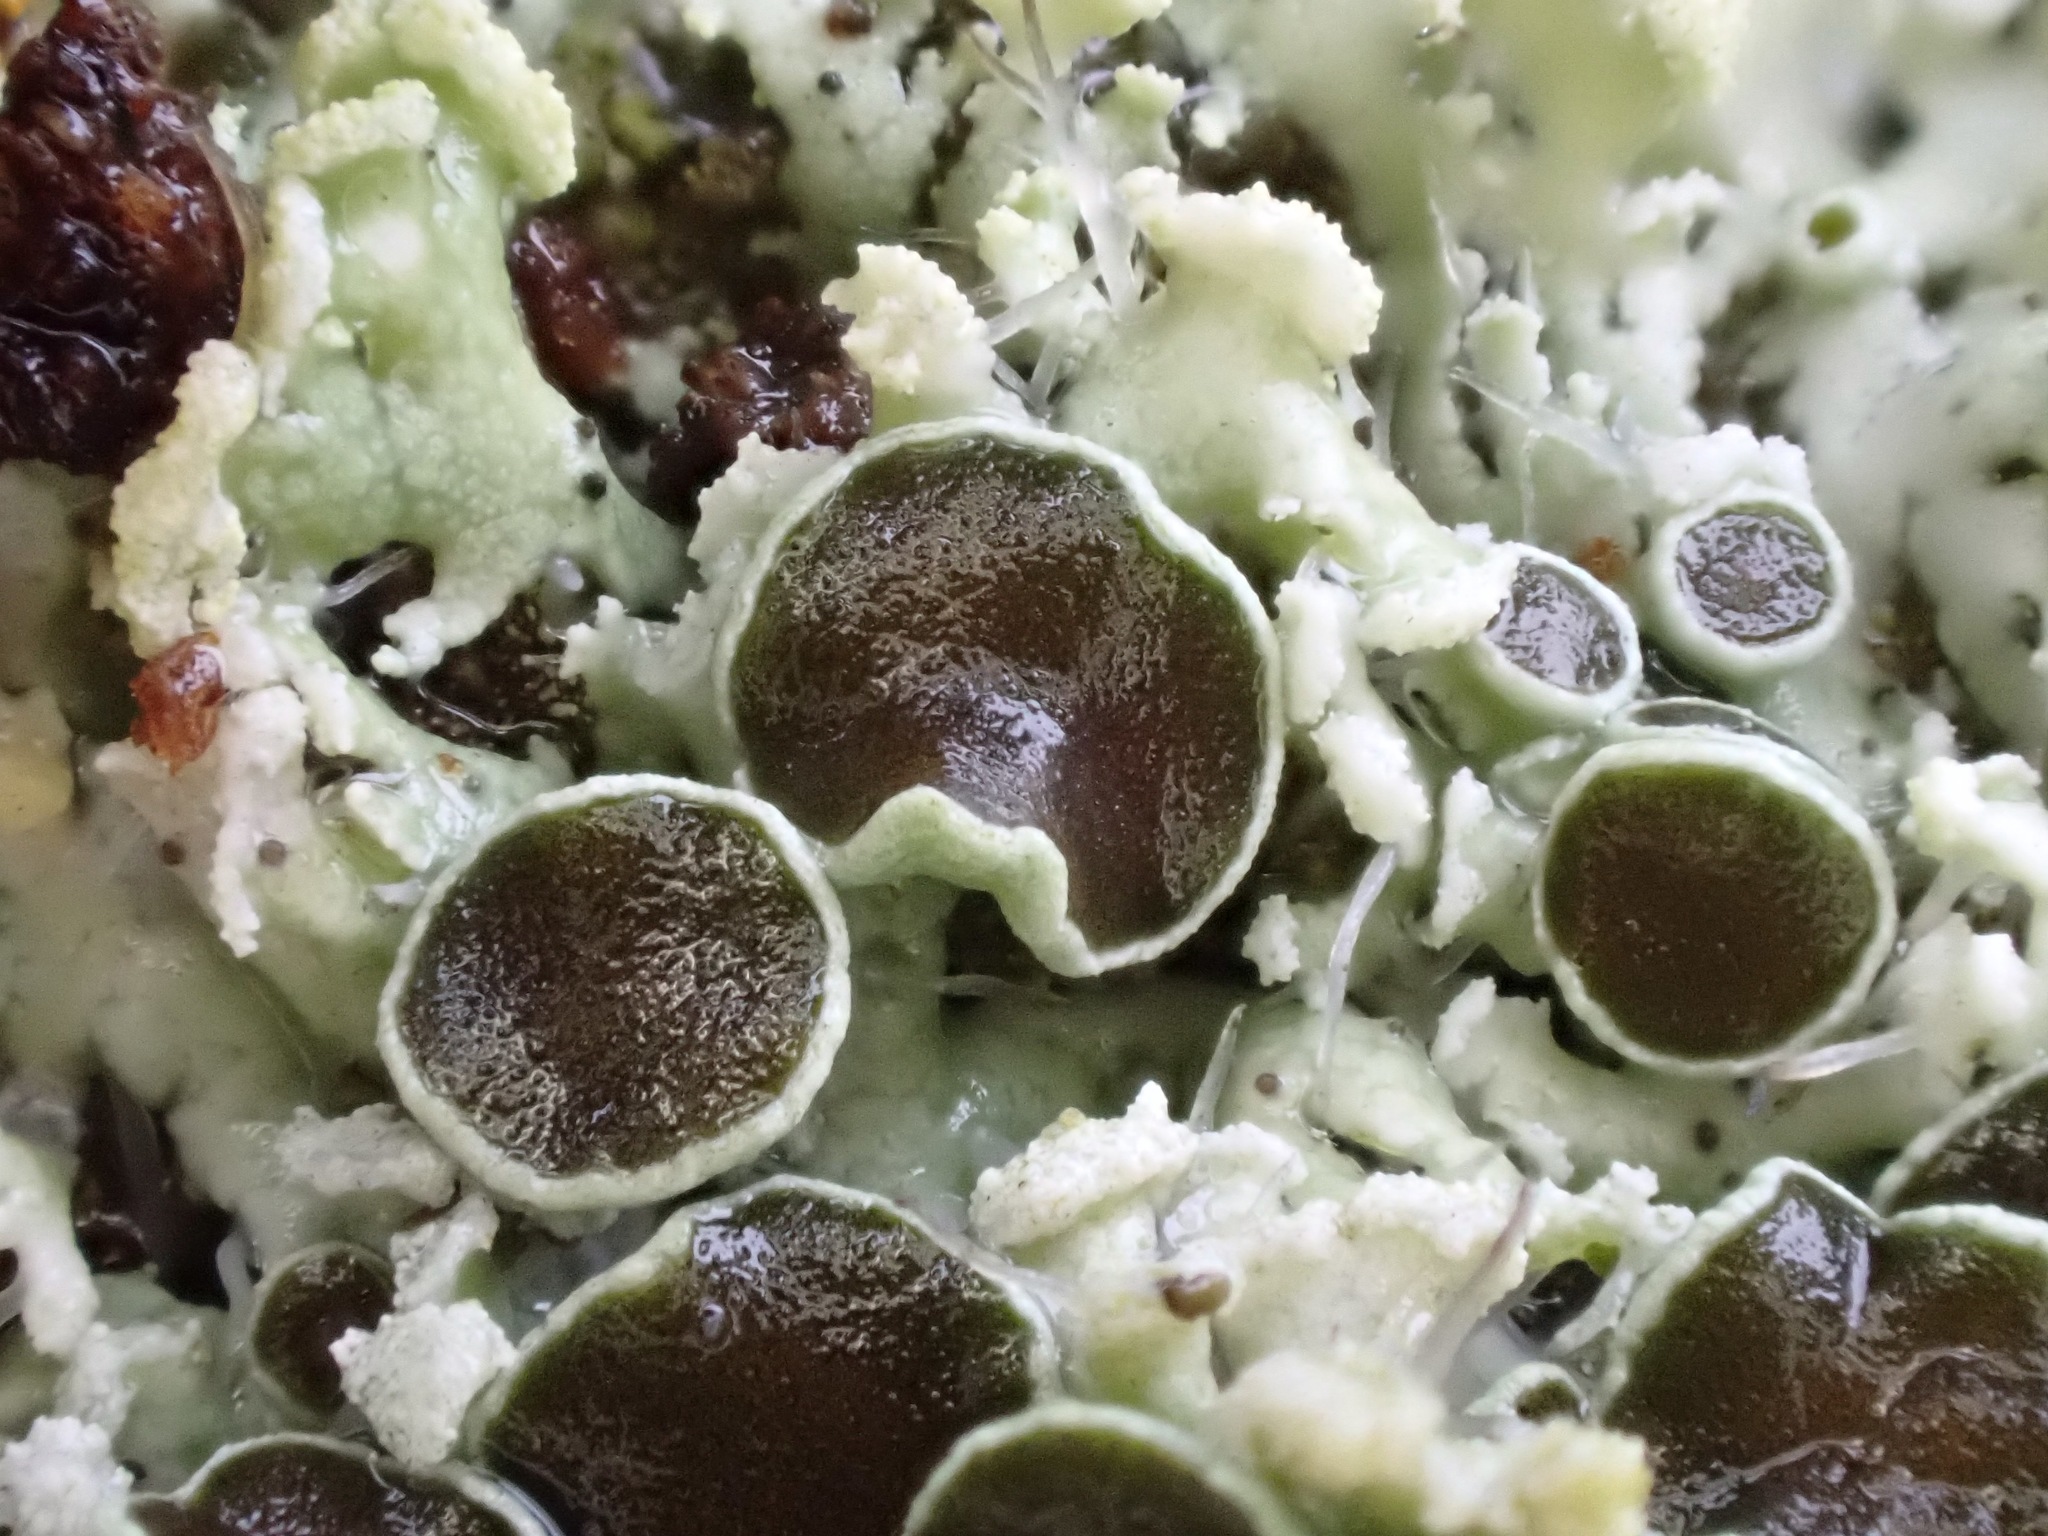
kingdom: Fungi
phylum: Ascomycota
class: Lecanoromycetes
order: Caliciales
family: Physciaceae
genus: Physcia
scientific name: Physcia tenella
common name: Fringed rosette lichen
